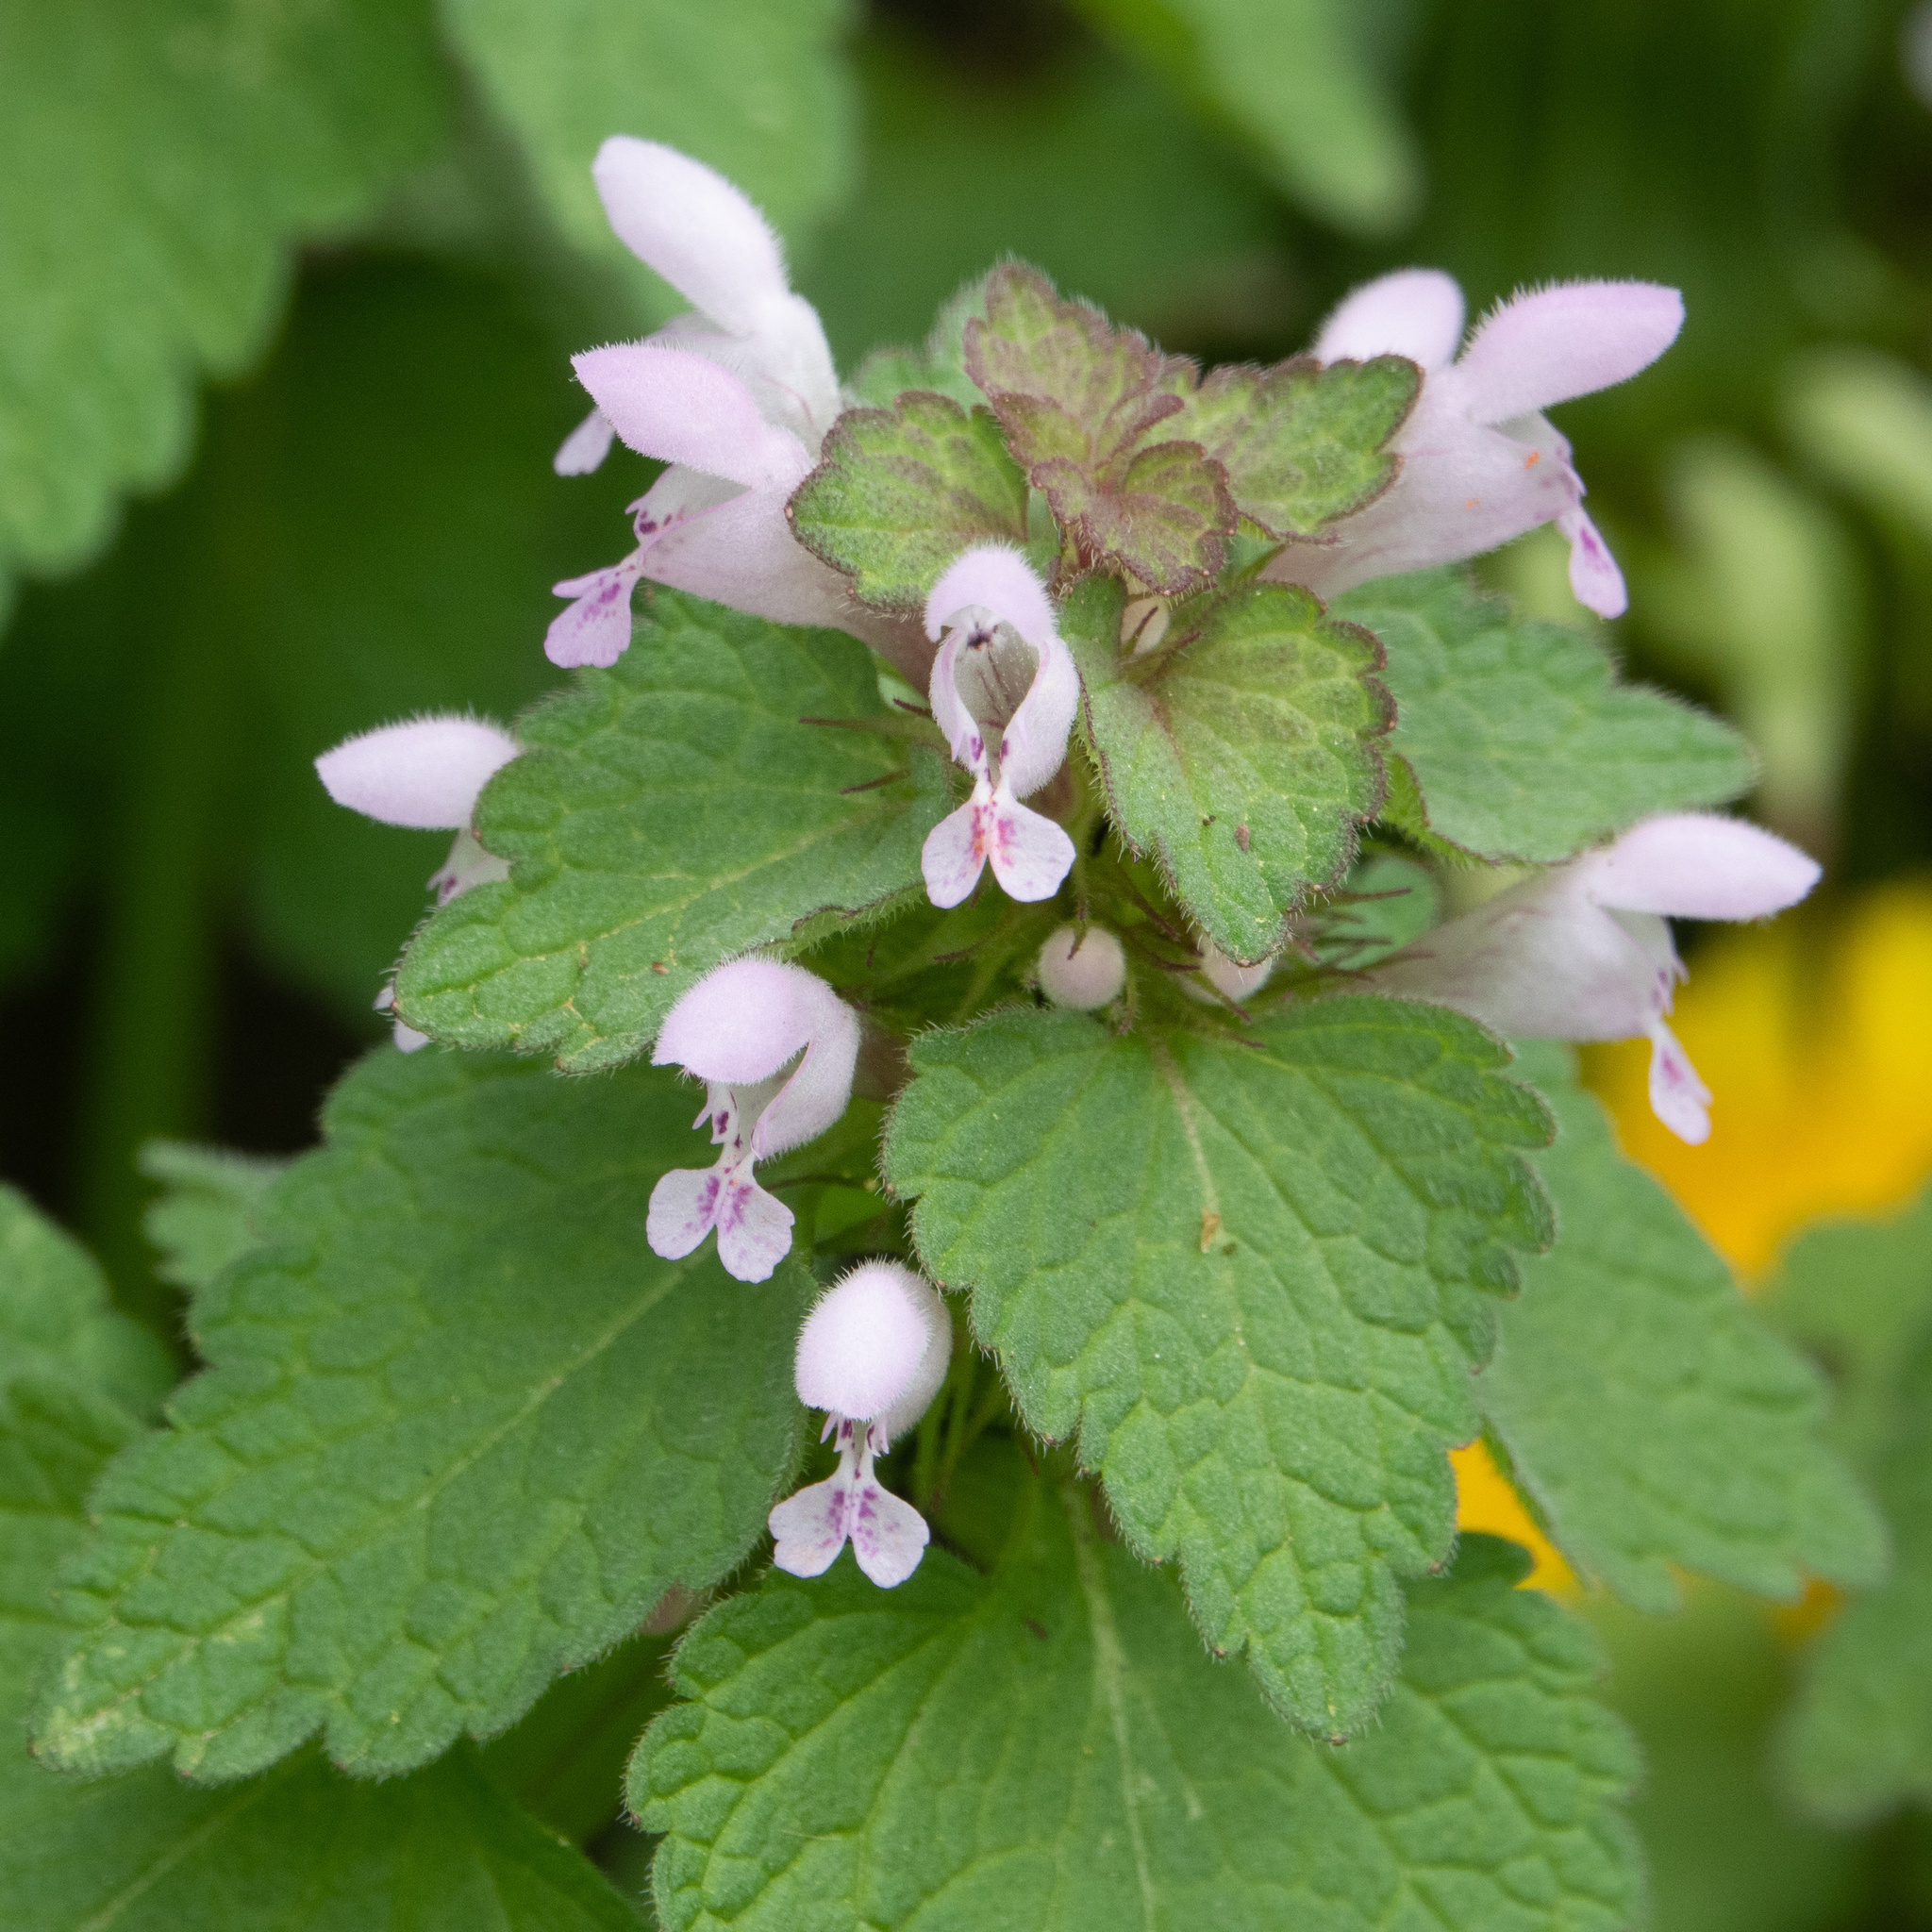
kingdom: Plantae
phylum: Tracheophyta
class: Magnoliopsida
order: Lamiales
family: Lamiaceae
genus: Lamium
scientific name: Lamium purpureum
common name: Red dead-nettle
